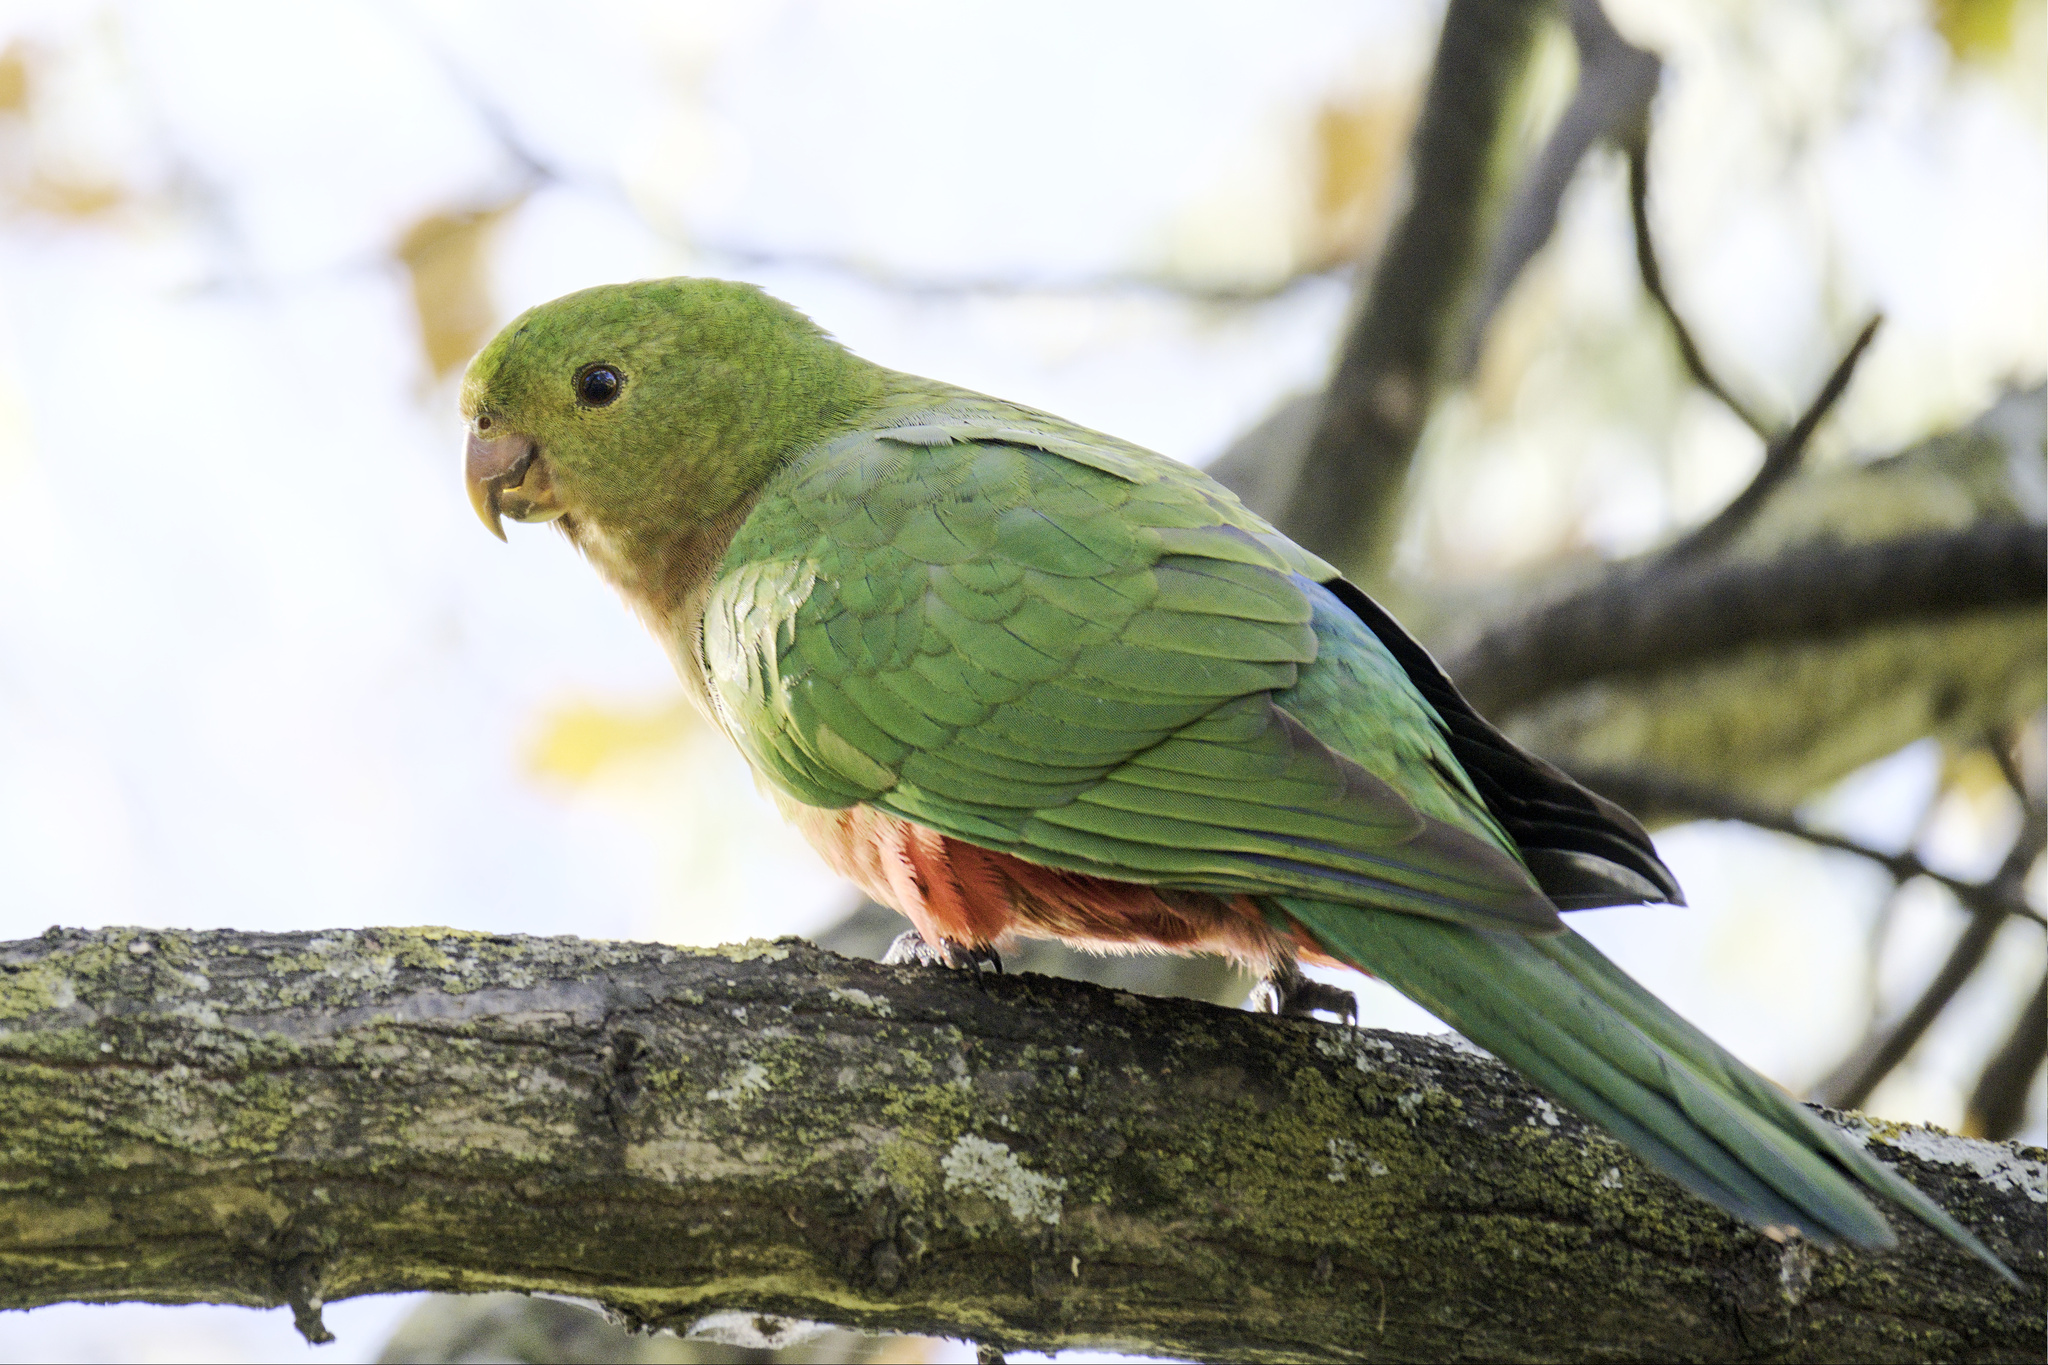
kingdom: Animalia
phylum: Chordata
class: Aves
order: Psittaciformes
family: Psittacidae
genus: Alisterus
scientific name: Alisterus scapularis
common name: Australian king parrot
